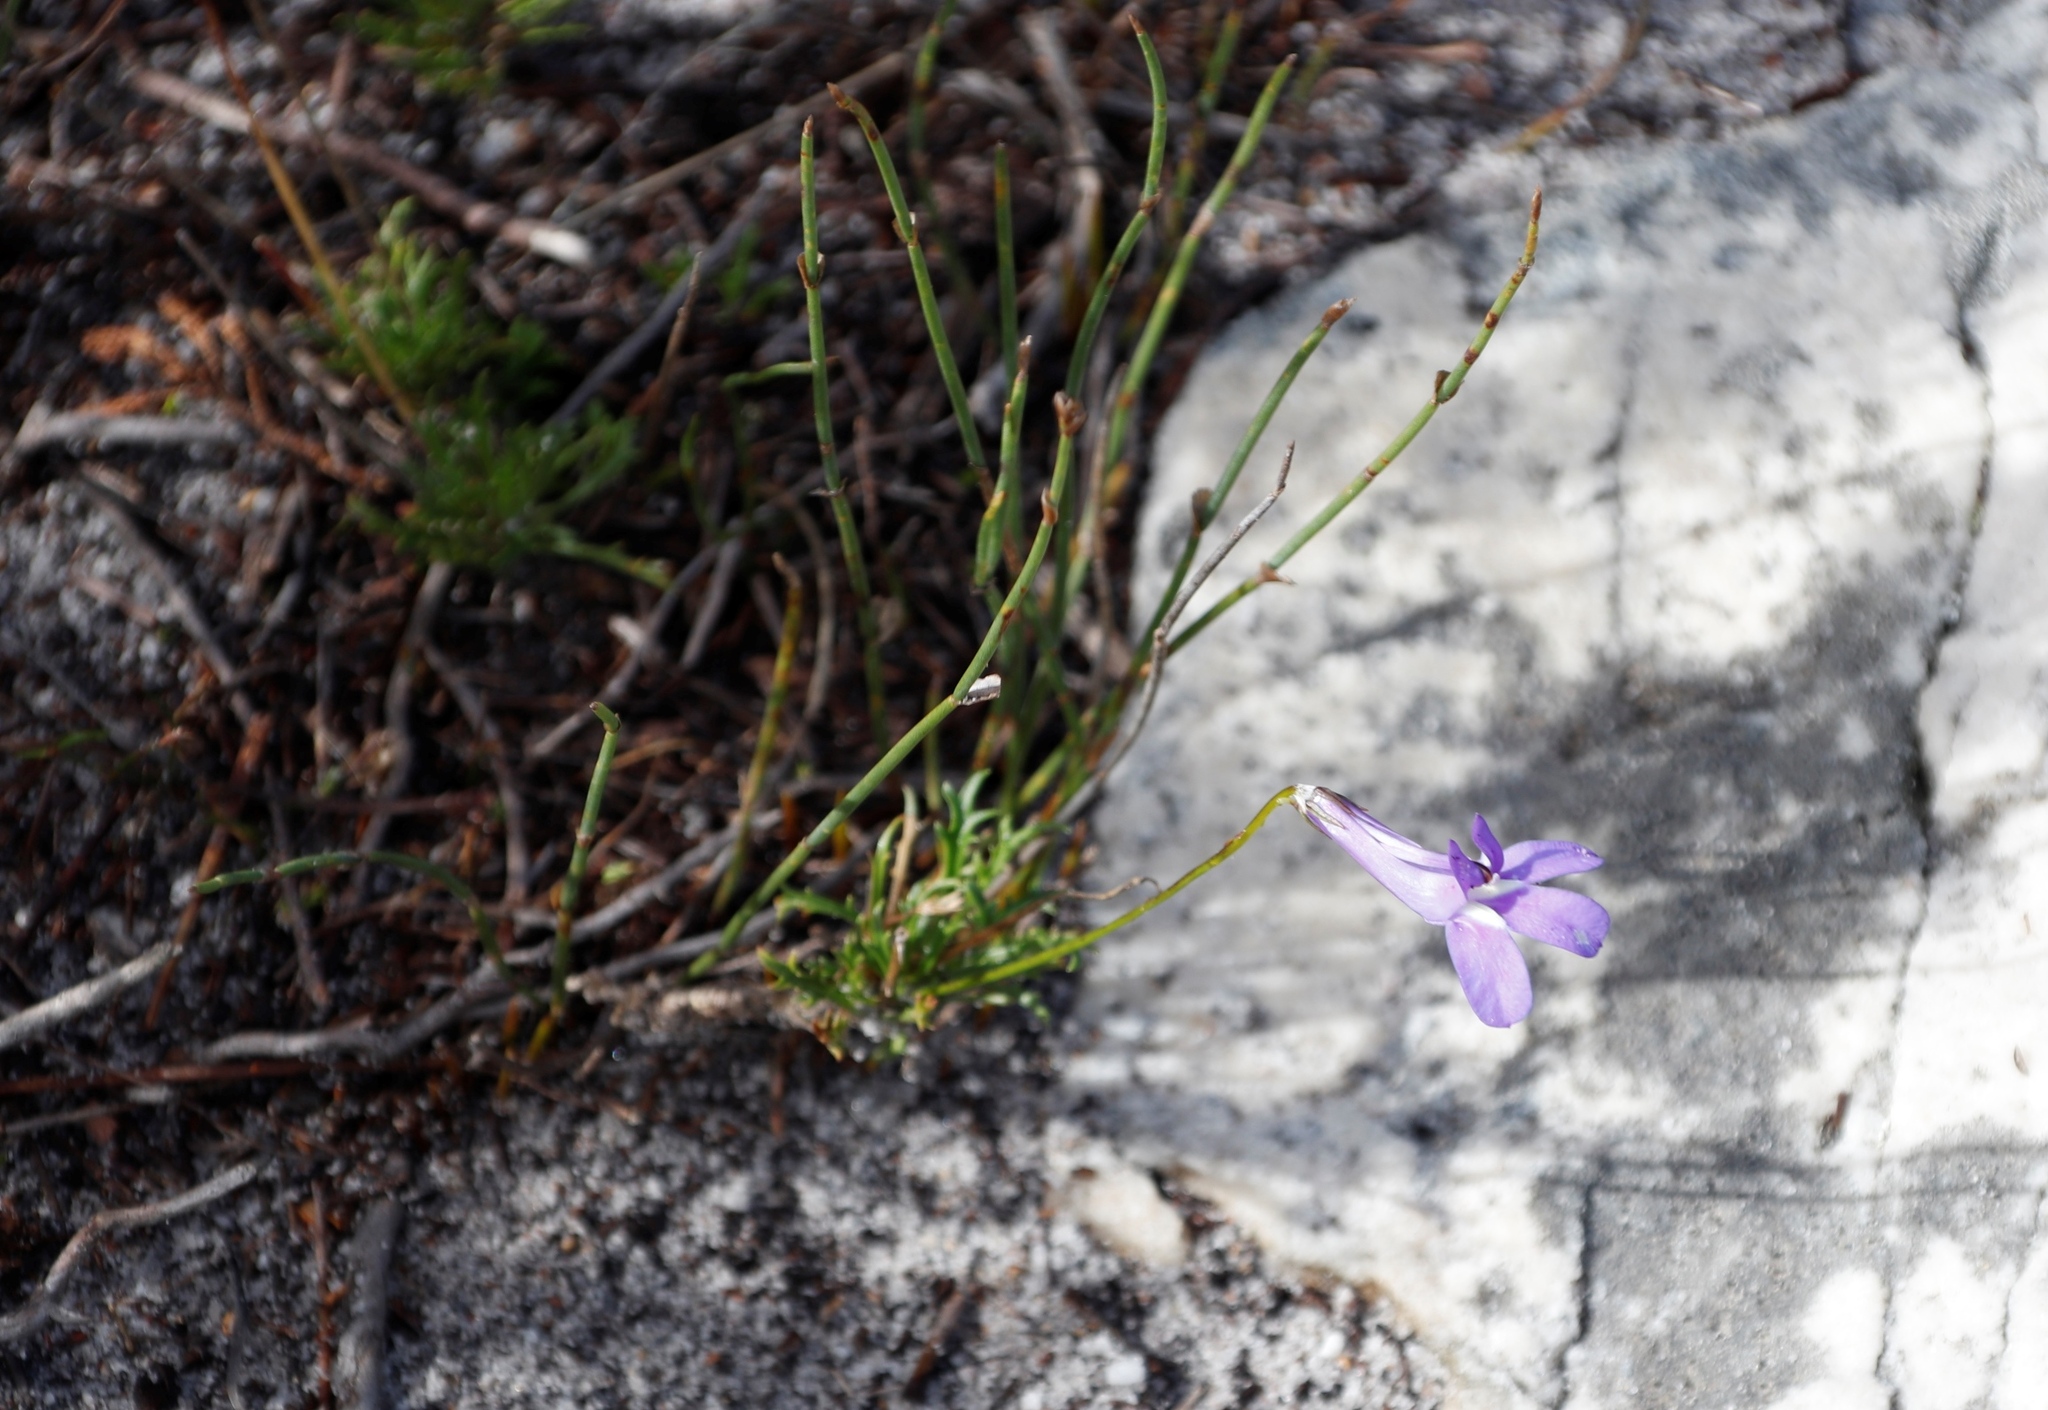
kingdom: Plantae
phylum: Tracheophyta
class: Magnoliopsida
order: Asterales
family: Campanulaceae
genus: Lobelia
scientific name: Lobelia coronopifolia
